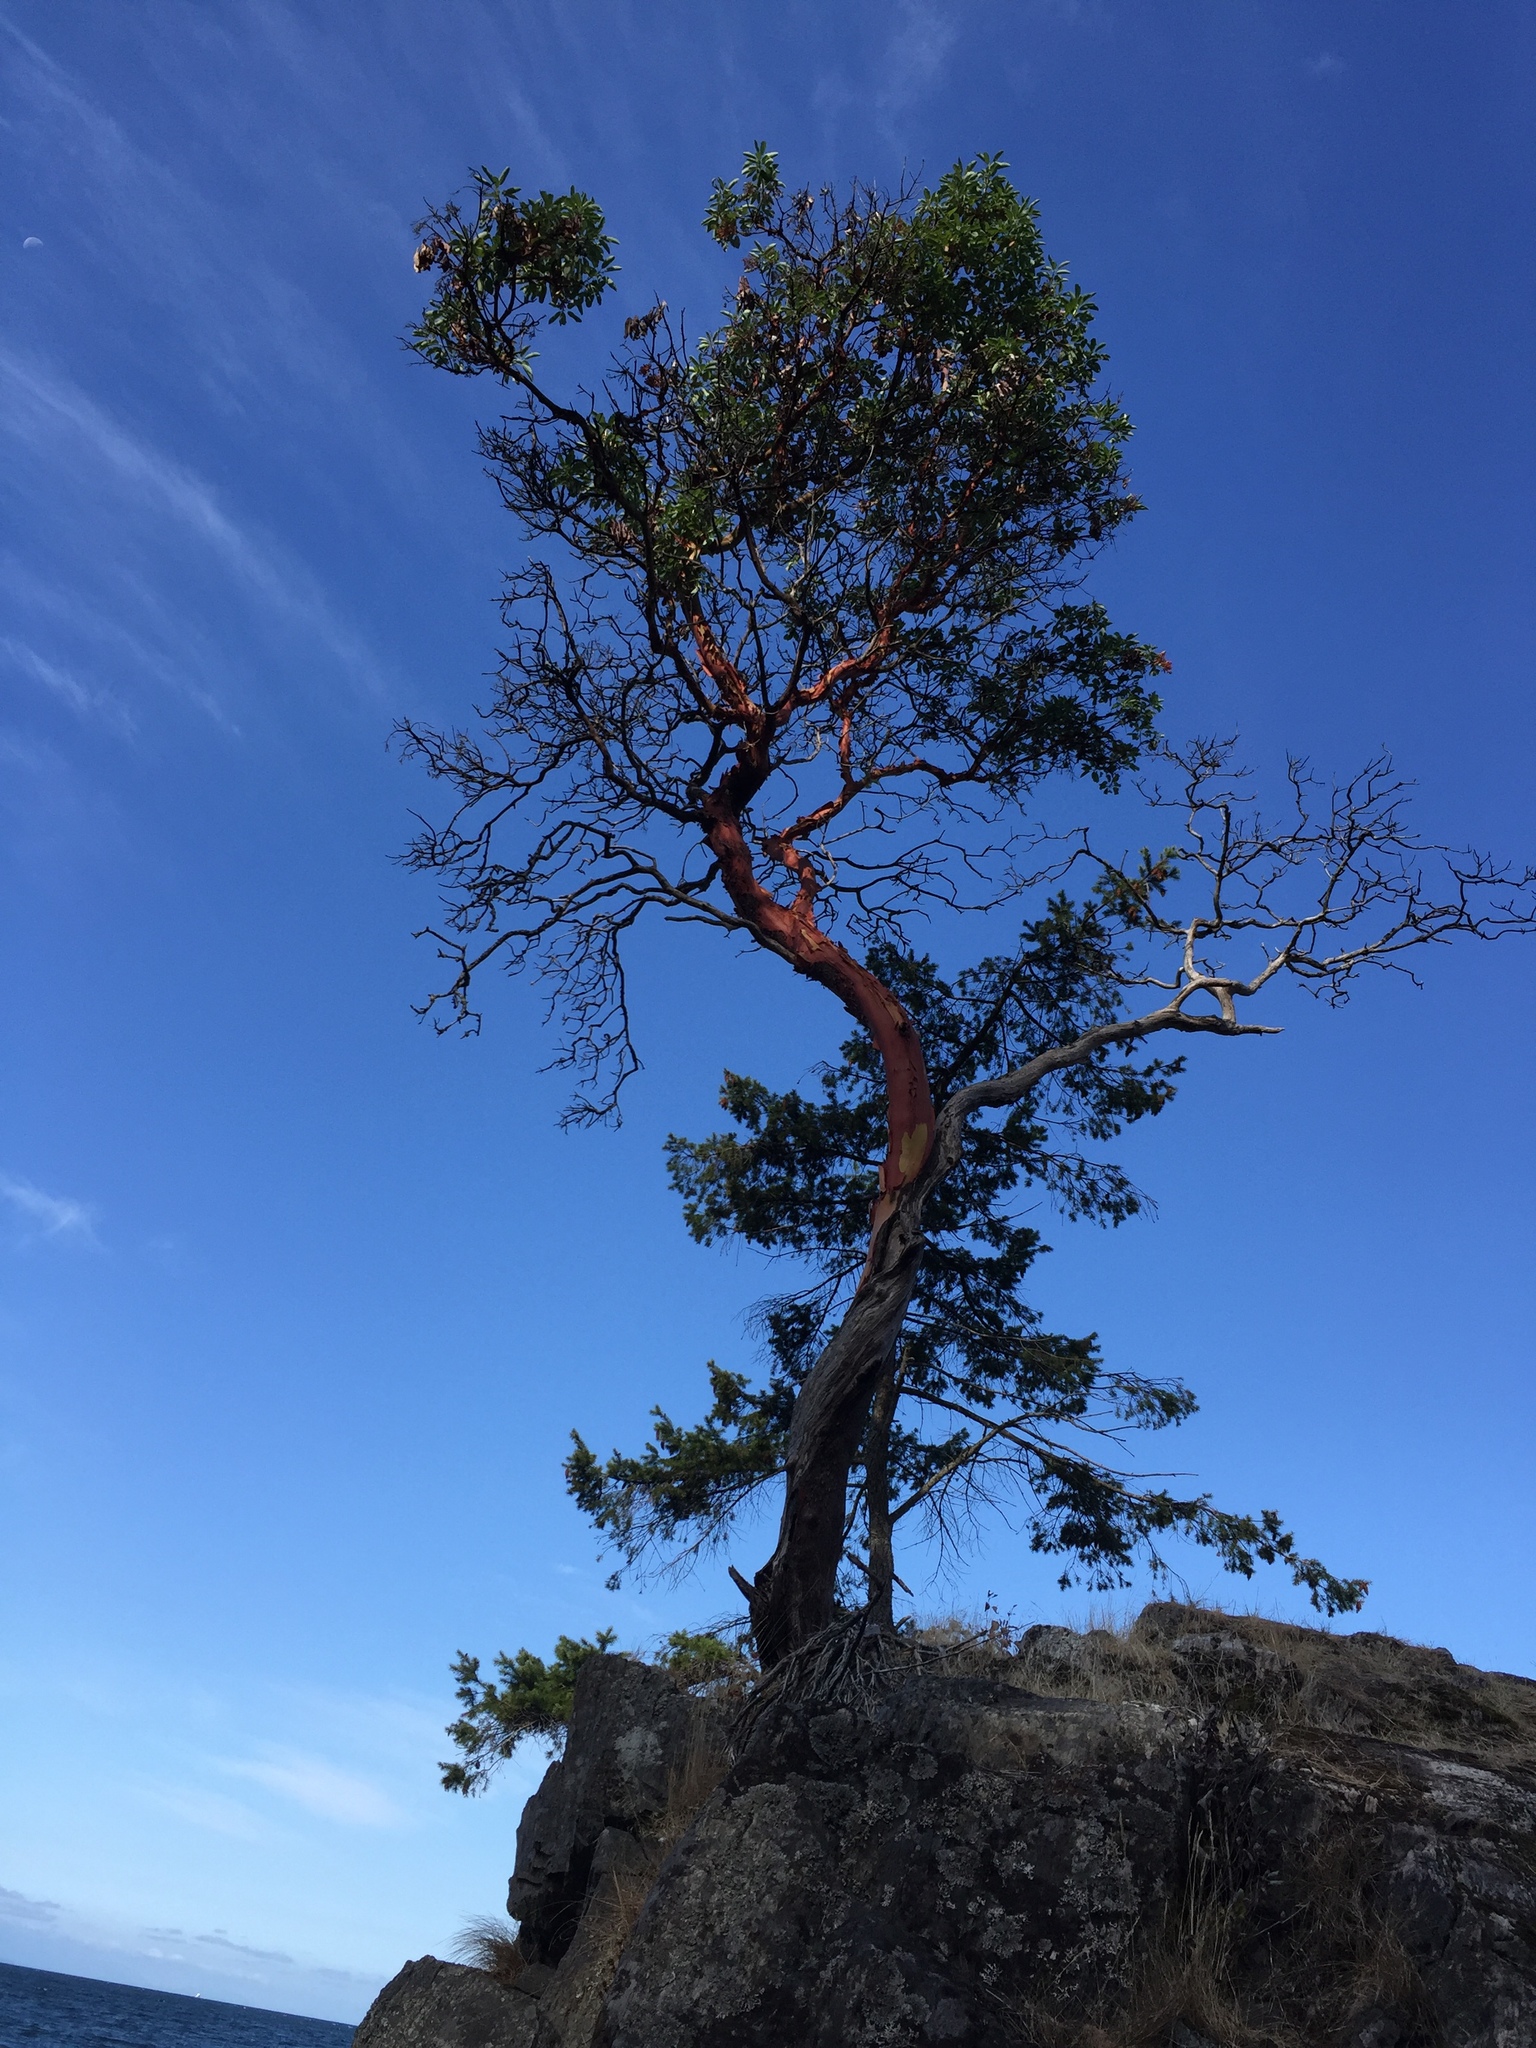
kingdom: Plantae
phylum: Tracheophyta
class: Magnoliopsida
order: Ericales
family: Ericaceae
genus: Arbutus
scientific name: Arbutus menziesii
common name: Pacific madrone
